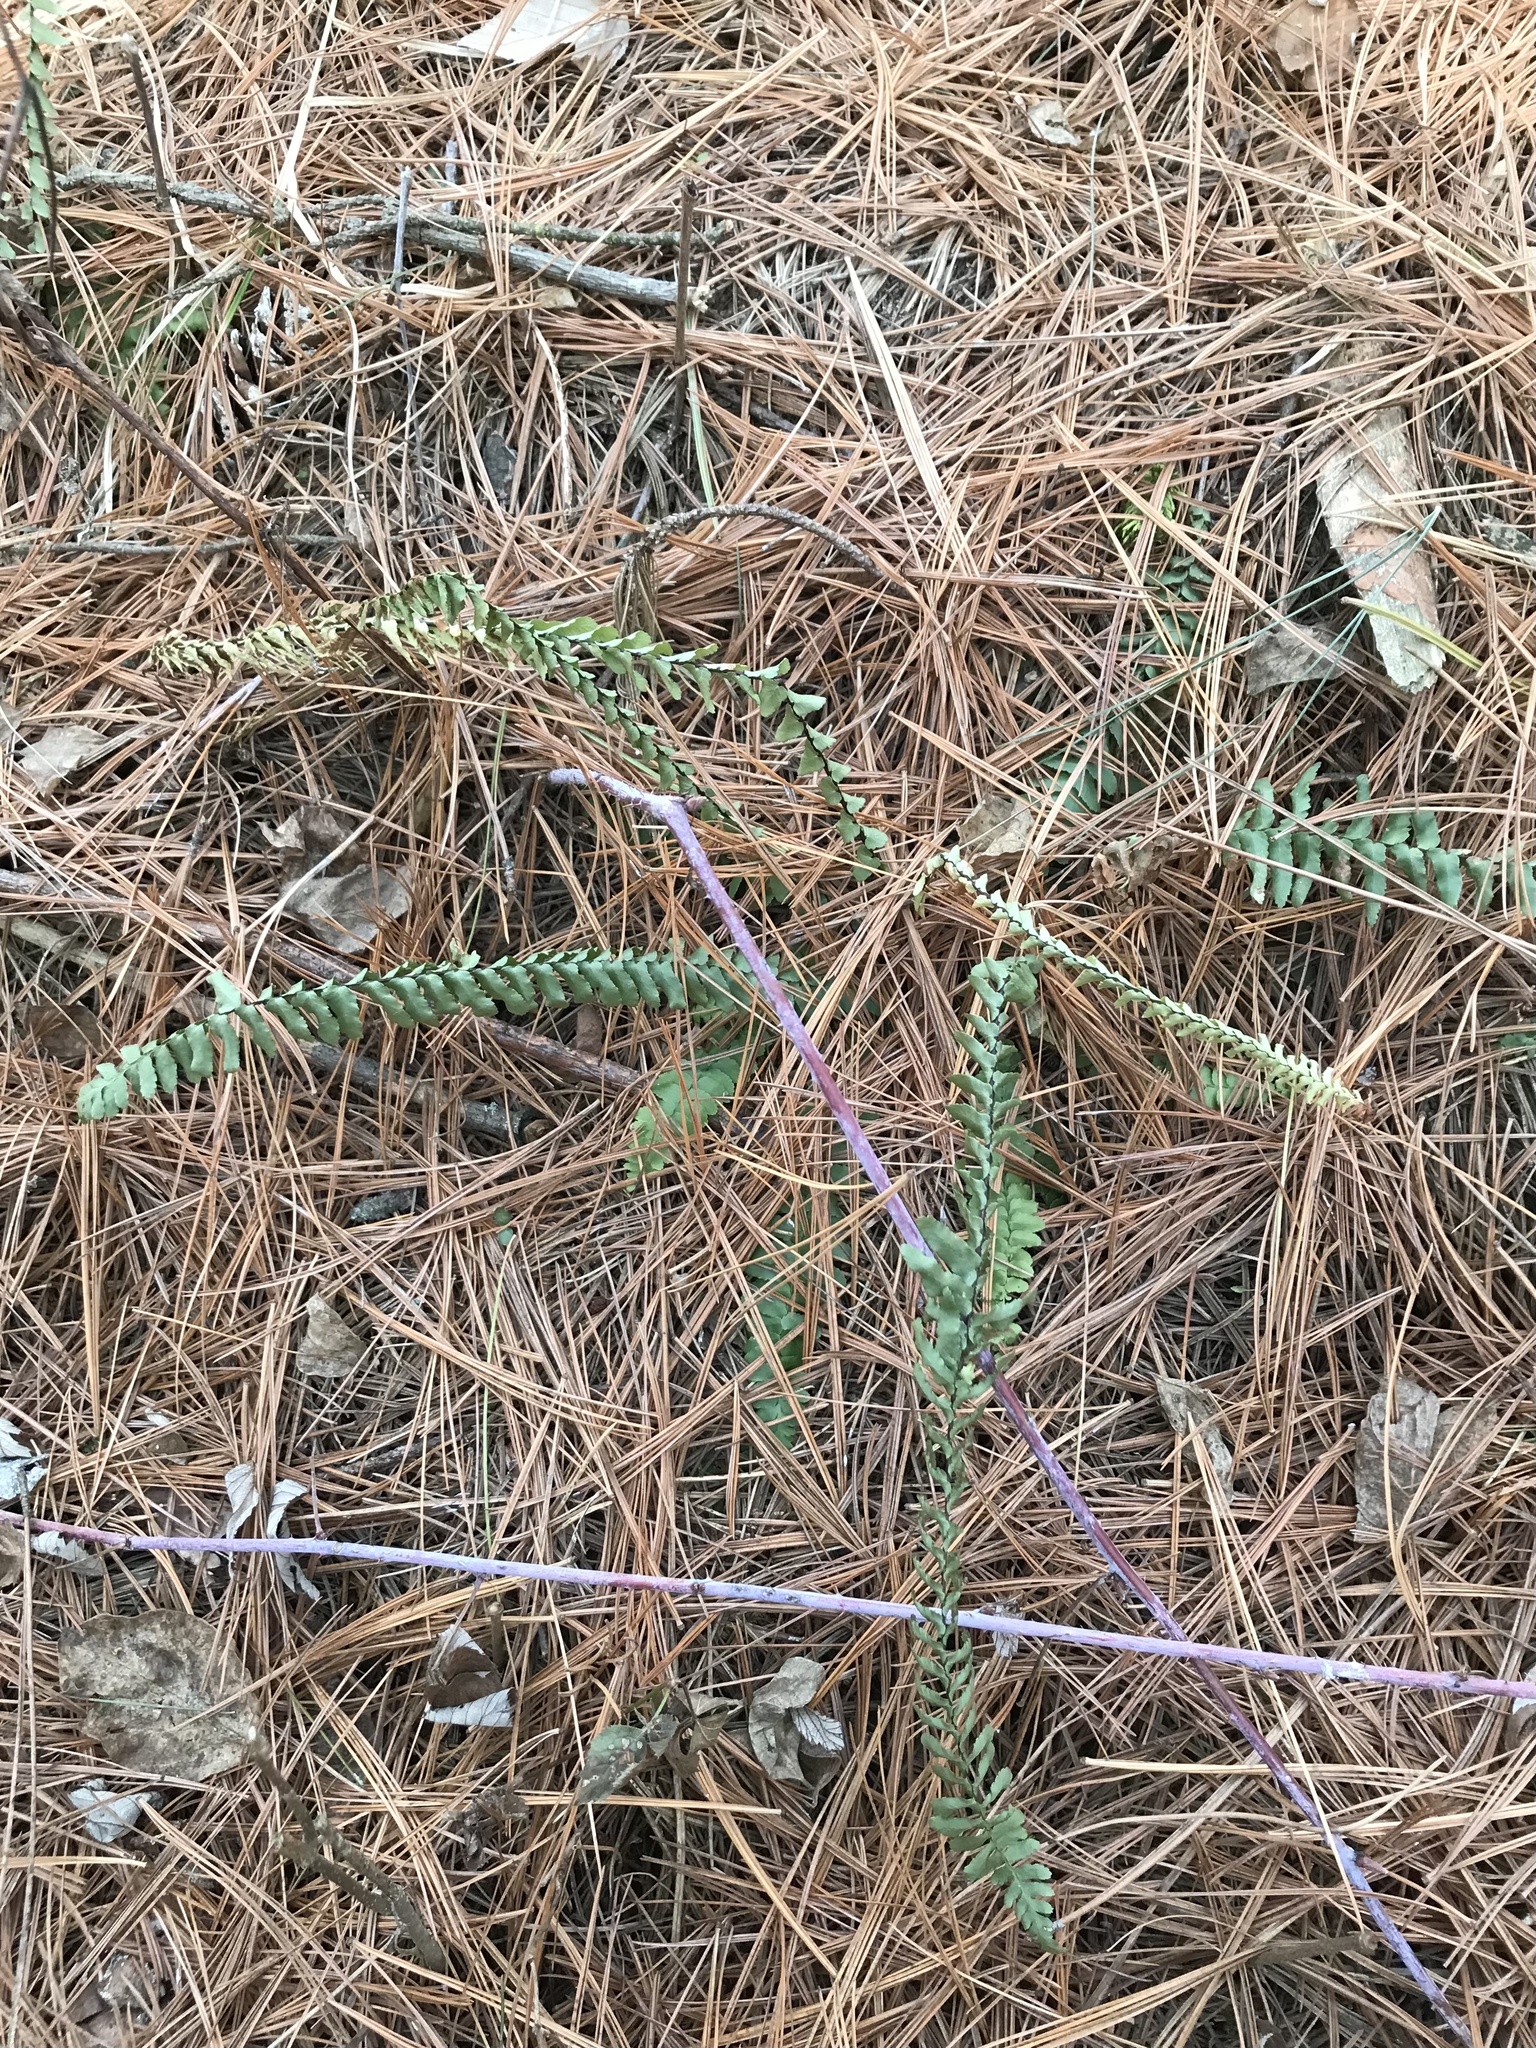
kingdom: Plantae
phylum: Tracheophyta
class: Polypodiopsida
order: Polypodiales
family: Aspleniaceae
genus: Asplenium
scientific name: Asplenium platyneuron
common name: Ebony spleenwort
